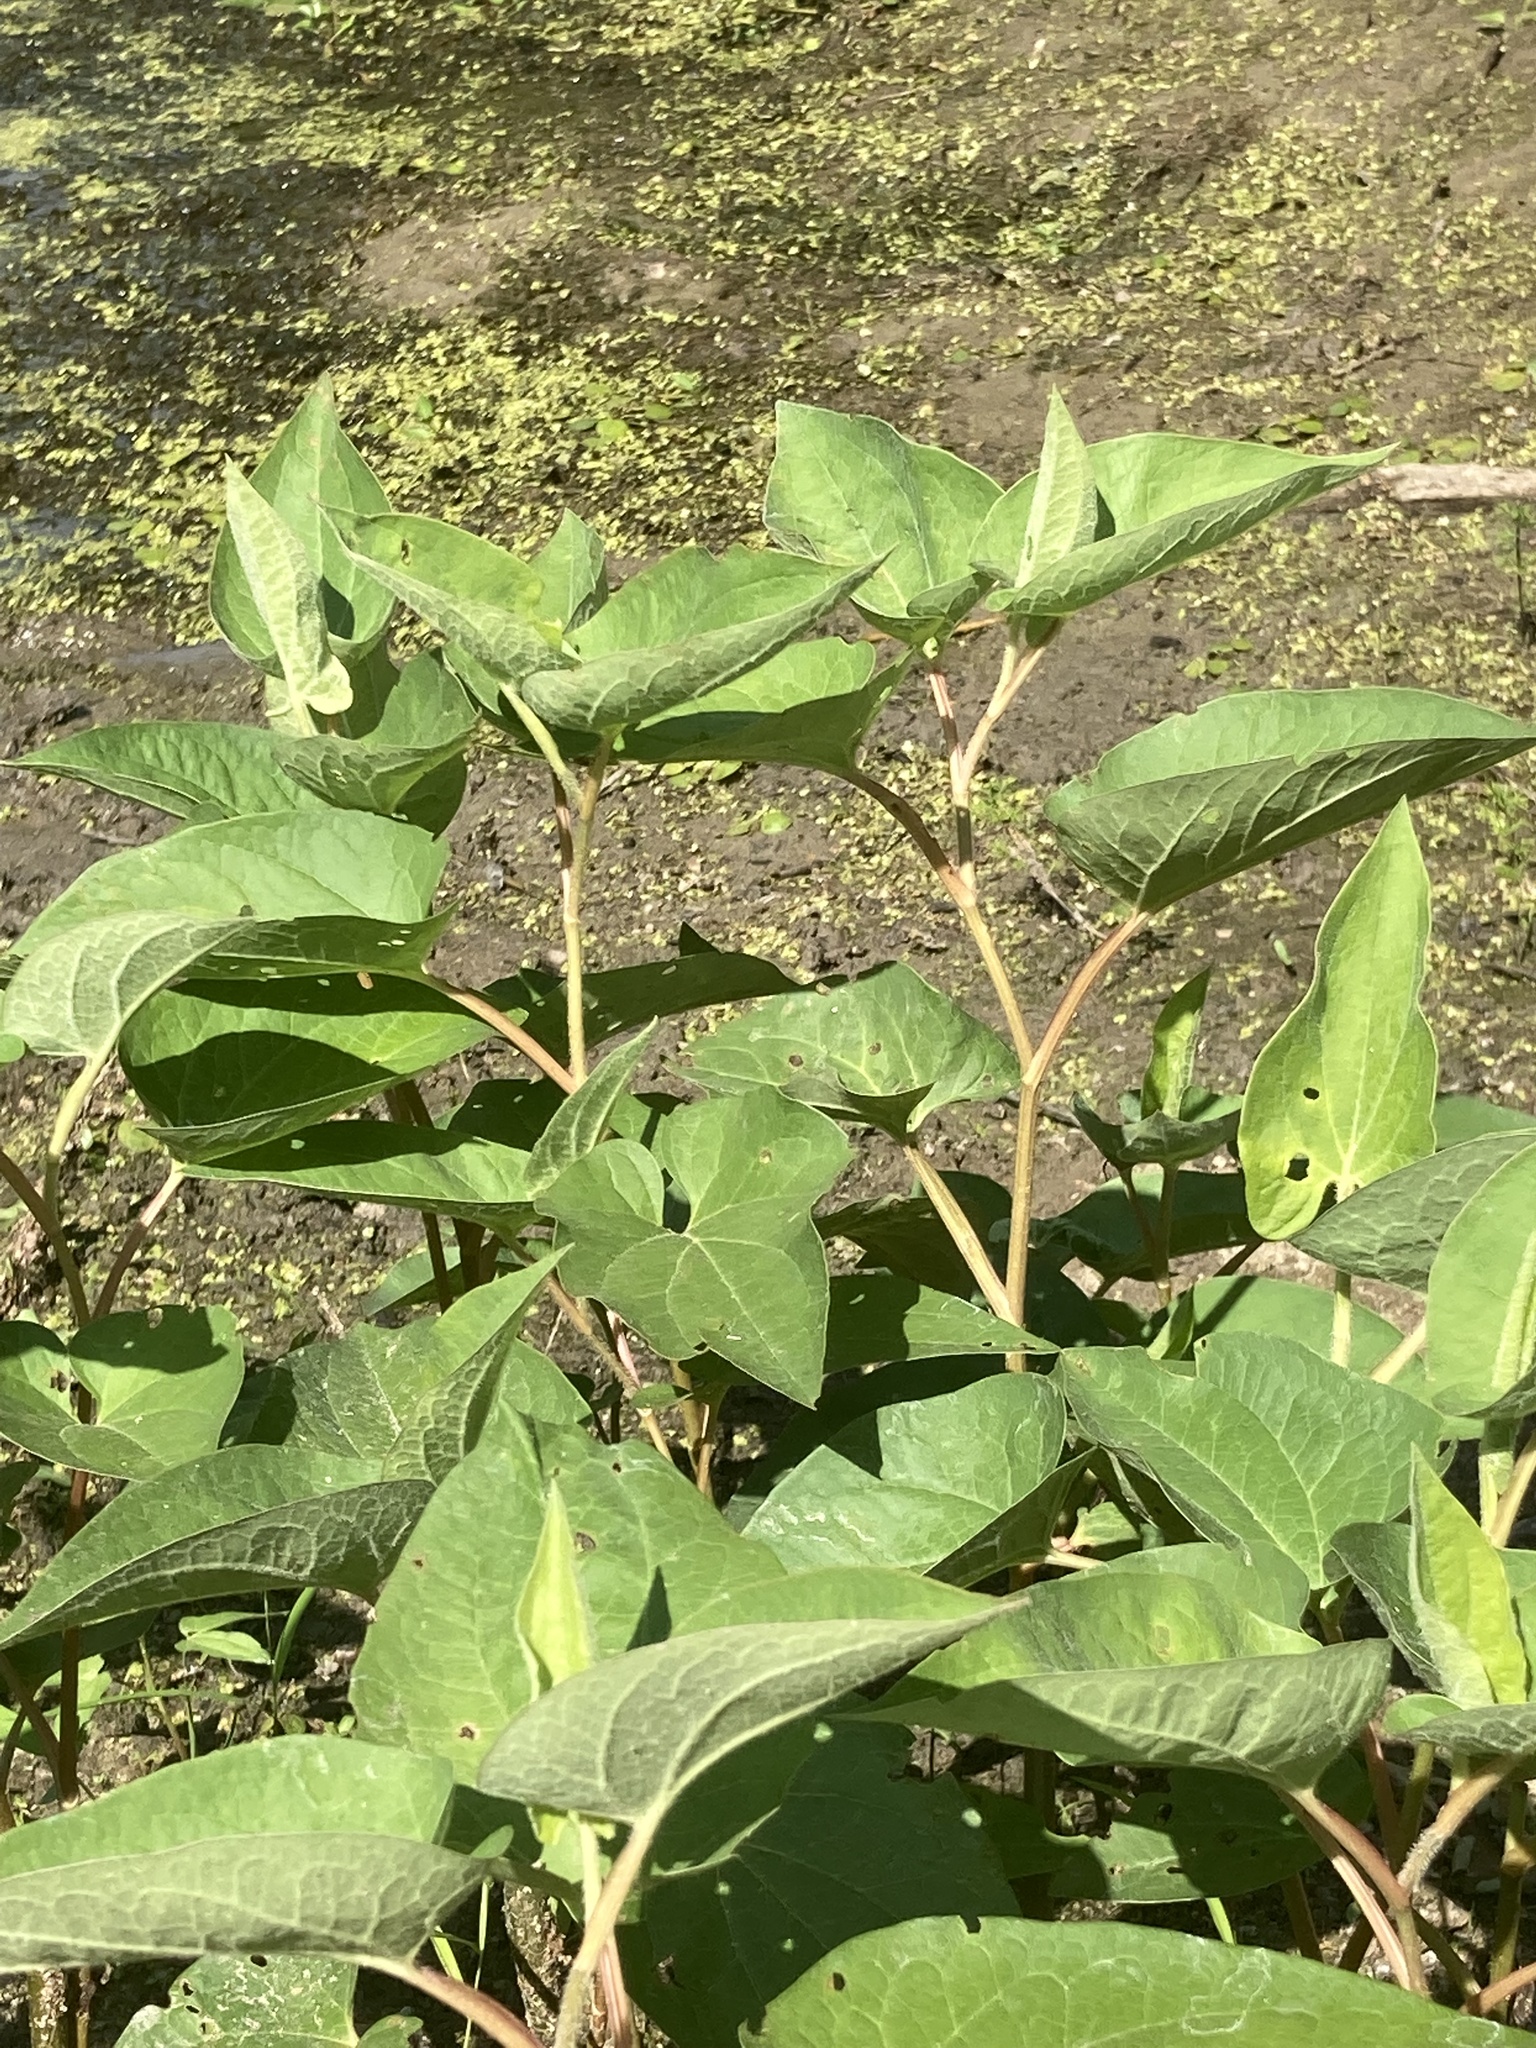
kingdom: Plantae
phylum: Tracheophyta
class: Magnoliopsida
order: Piperales
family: Saururaceae
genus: Saururus
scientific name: Saururus cernuus
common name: Lizard's-tail
